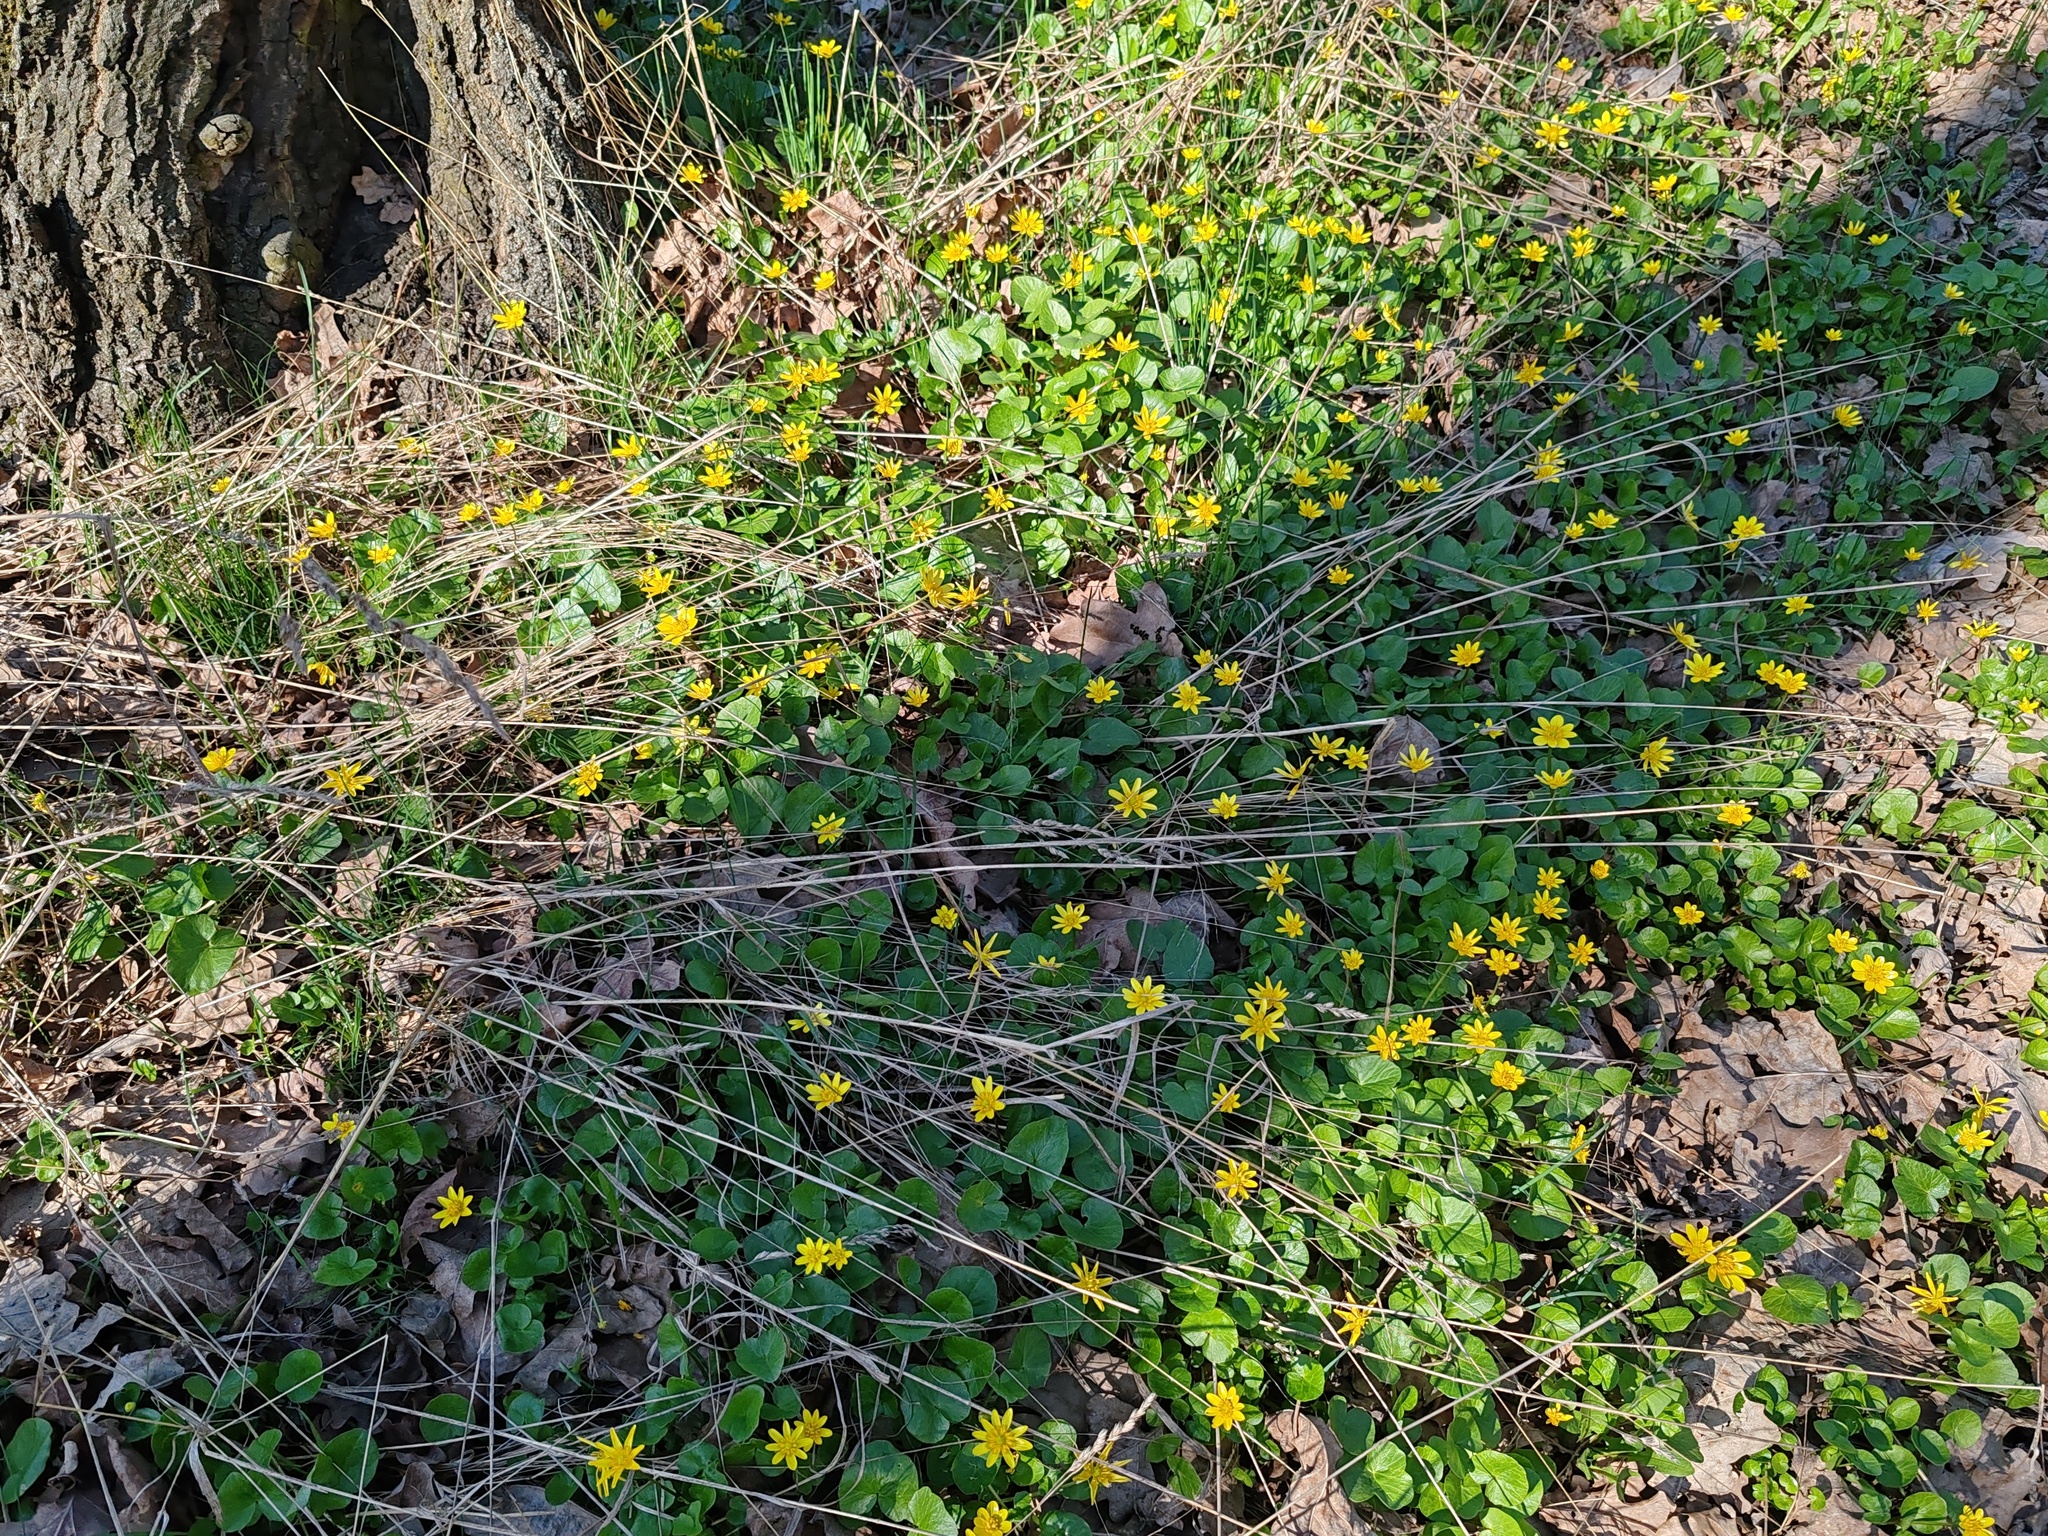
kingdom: Plantae
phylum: Tracheophyta
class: Magnoliopsida
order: Ranunculales
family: Ranunculaceae
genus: Ficaria
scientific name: Ficaria verna
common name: Lesser celandine
